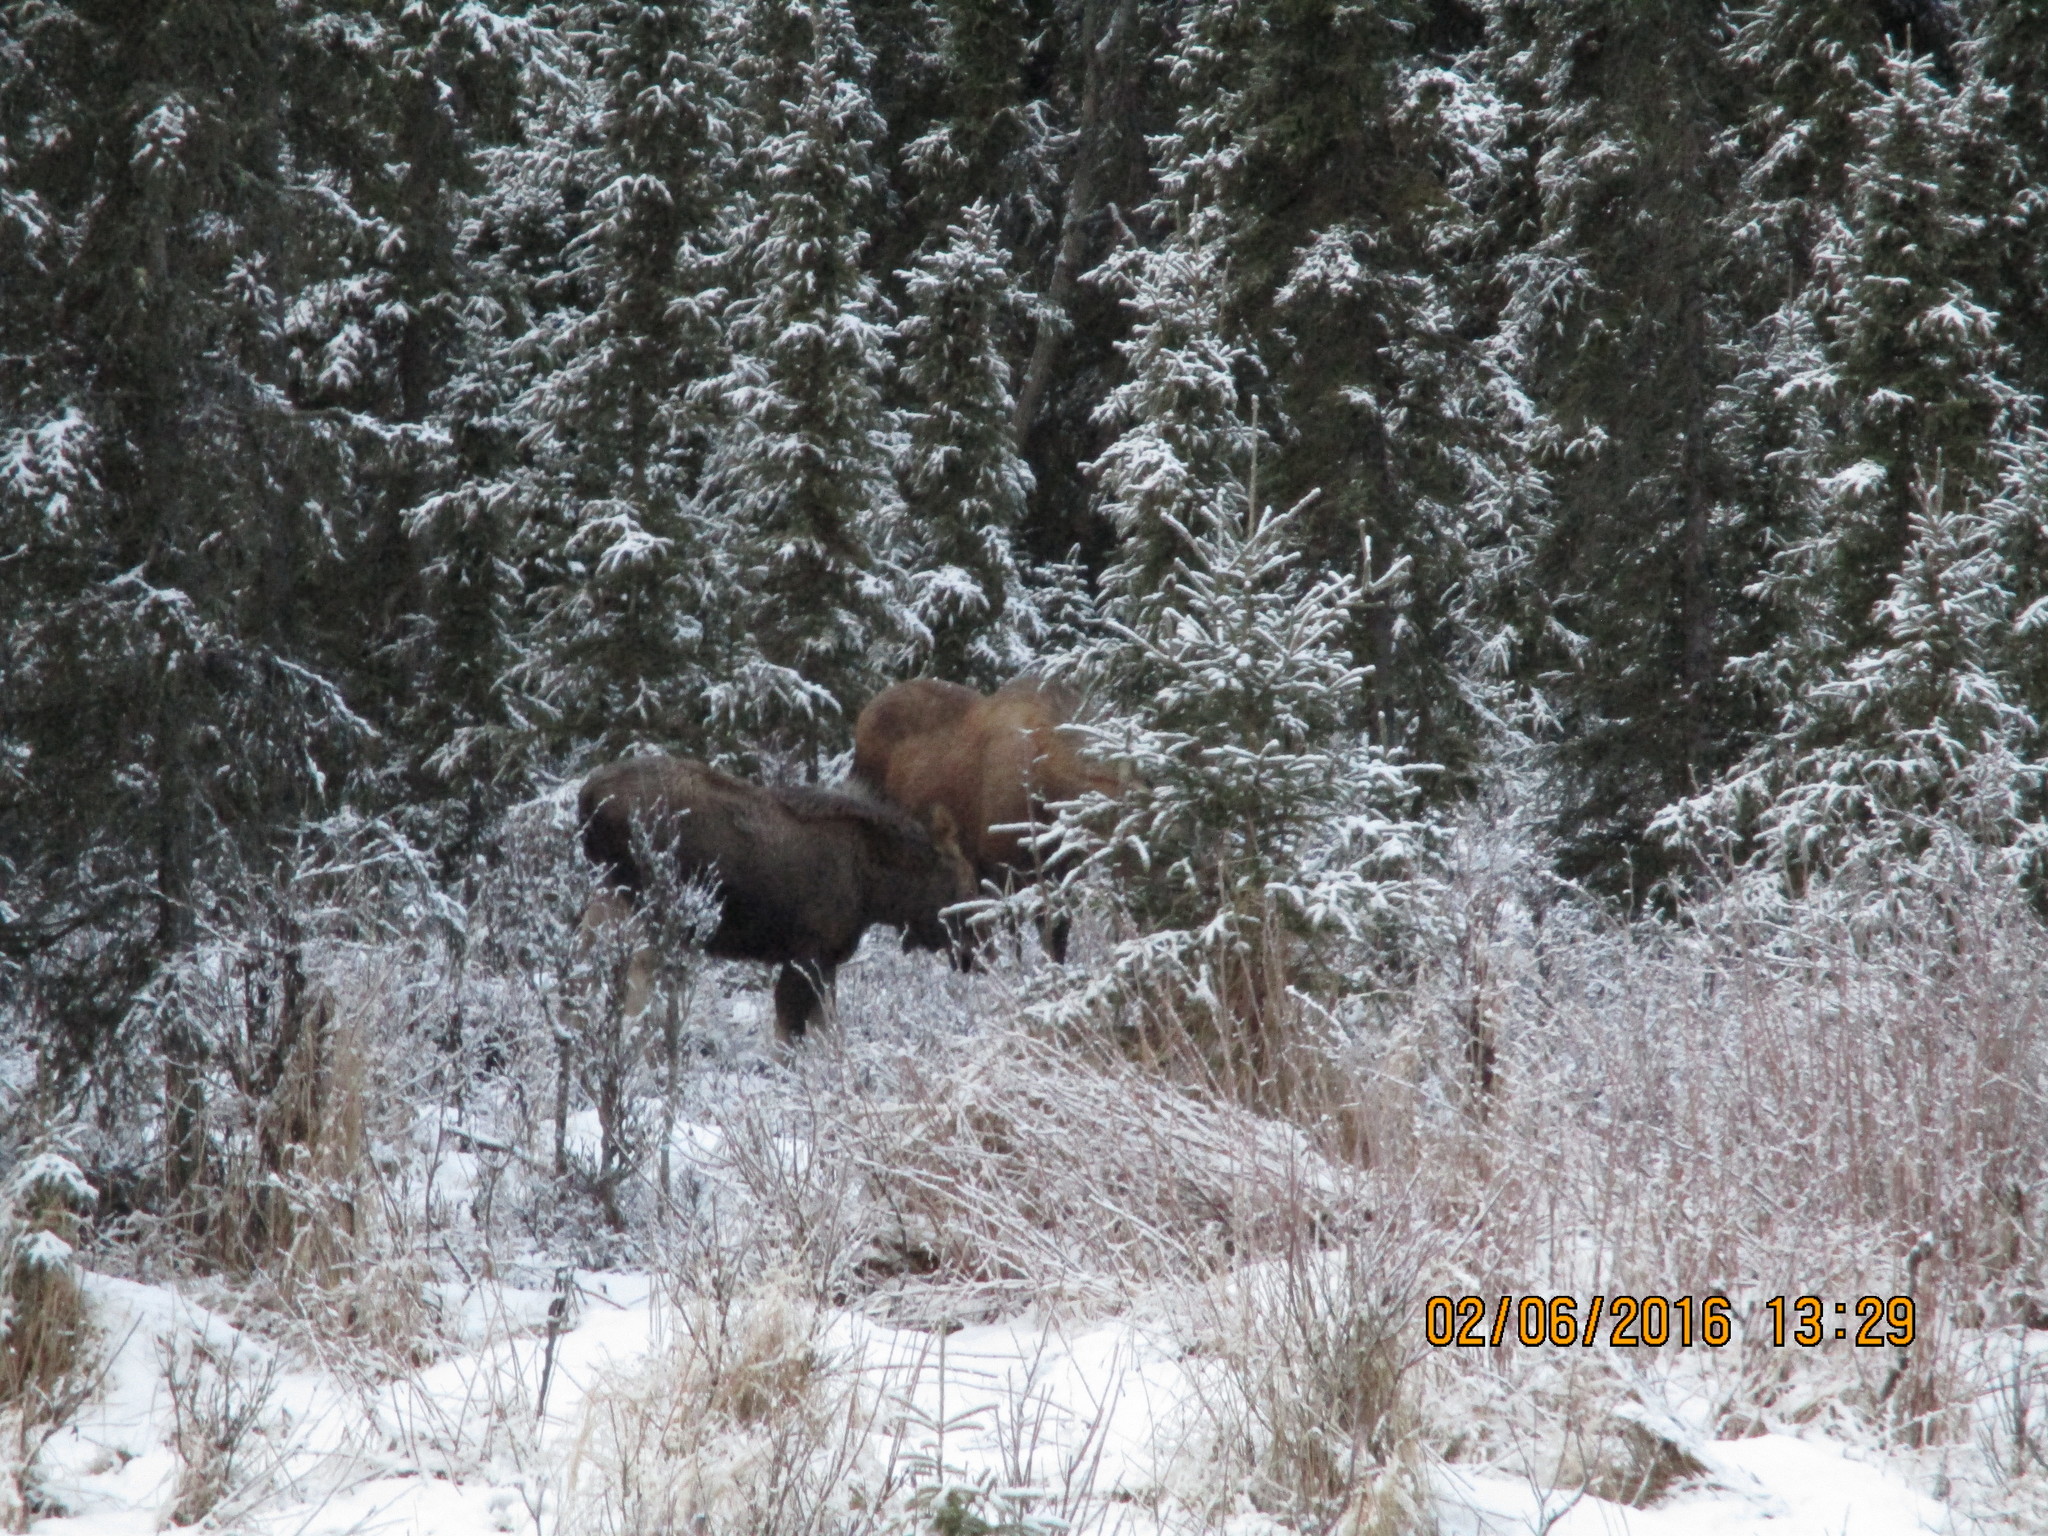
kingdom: Animalia
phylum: Chordata
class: Mammalia
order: Artiodactyla
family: Cervidae
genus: Alces
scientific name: Alces alces
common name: Moose
